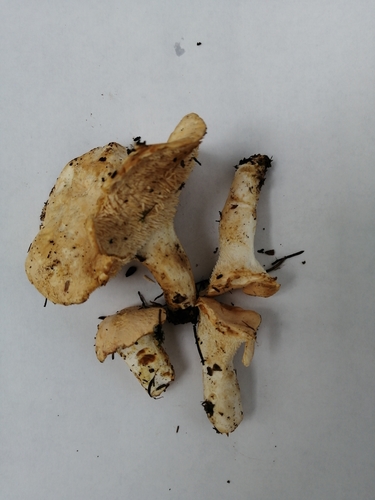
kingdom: Fungi
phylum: Basidiomycota
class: Agaricomycetes
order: Cantharellales
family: Hydnaceae
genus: Hydnum
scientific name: Hydnum repandum
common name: Wood hedgehog
